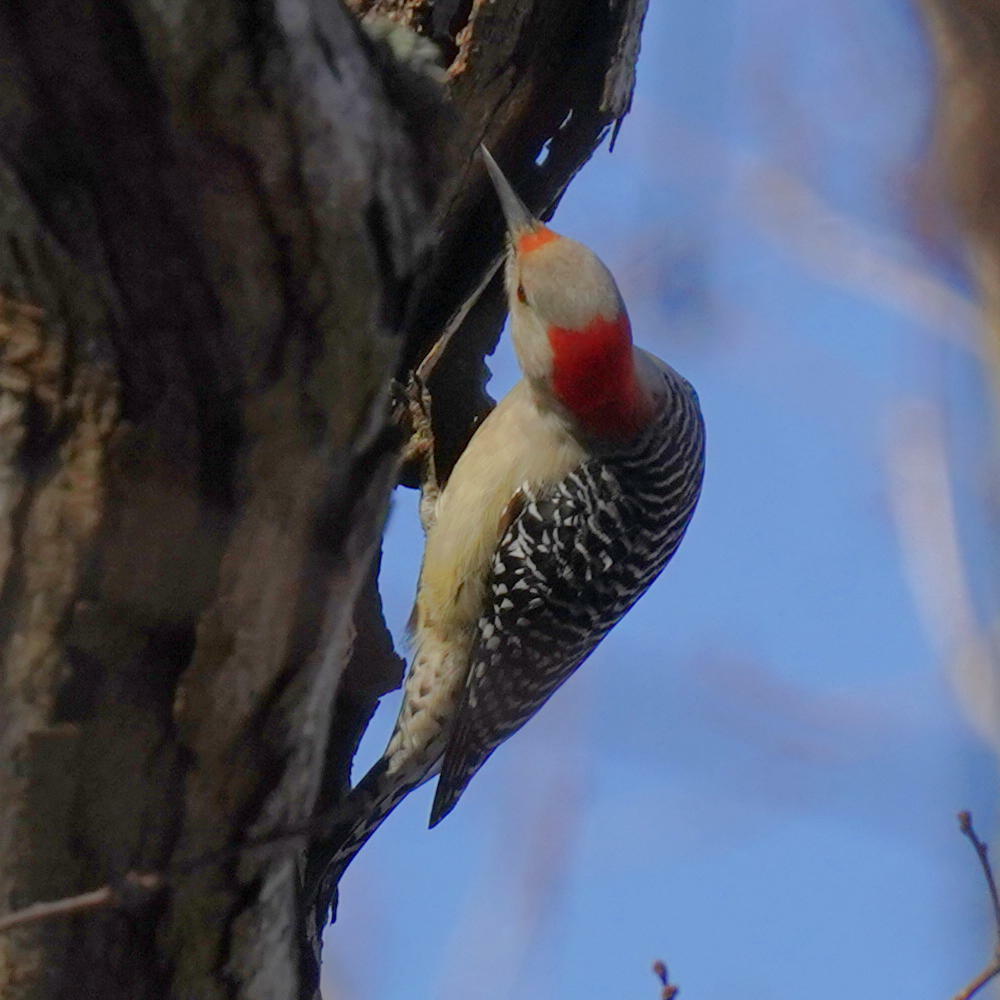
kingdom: Animalia
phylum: Chordata
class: Aves
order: Piciformes
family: Picidae
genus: Melanerpes
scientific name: Melanerpes carolinus
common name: Red-bellied woodpecker
